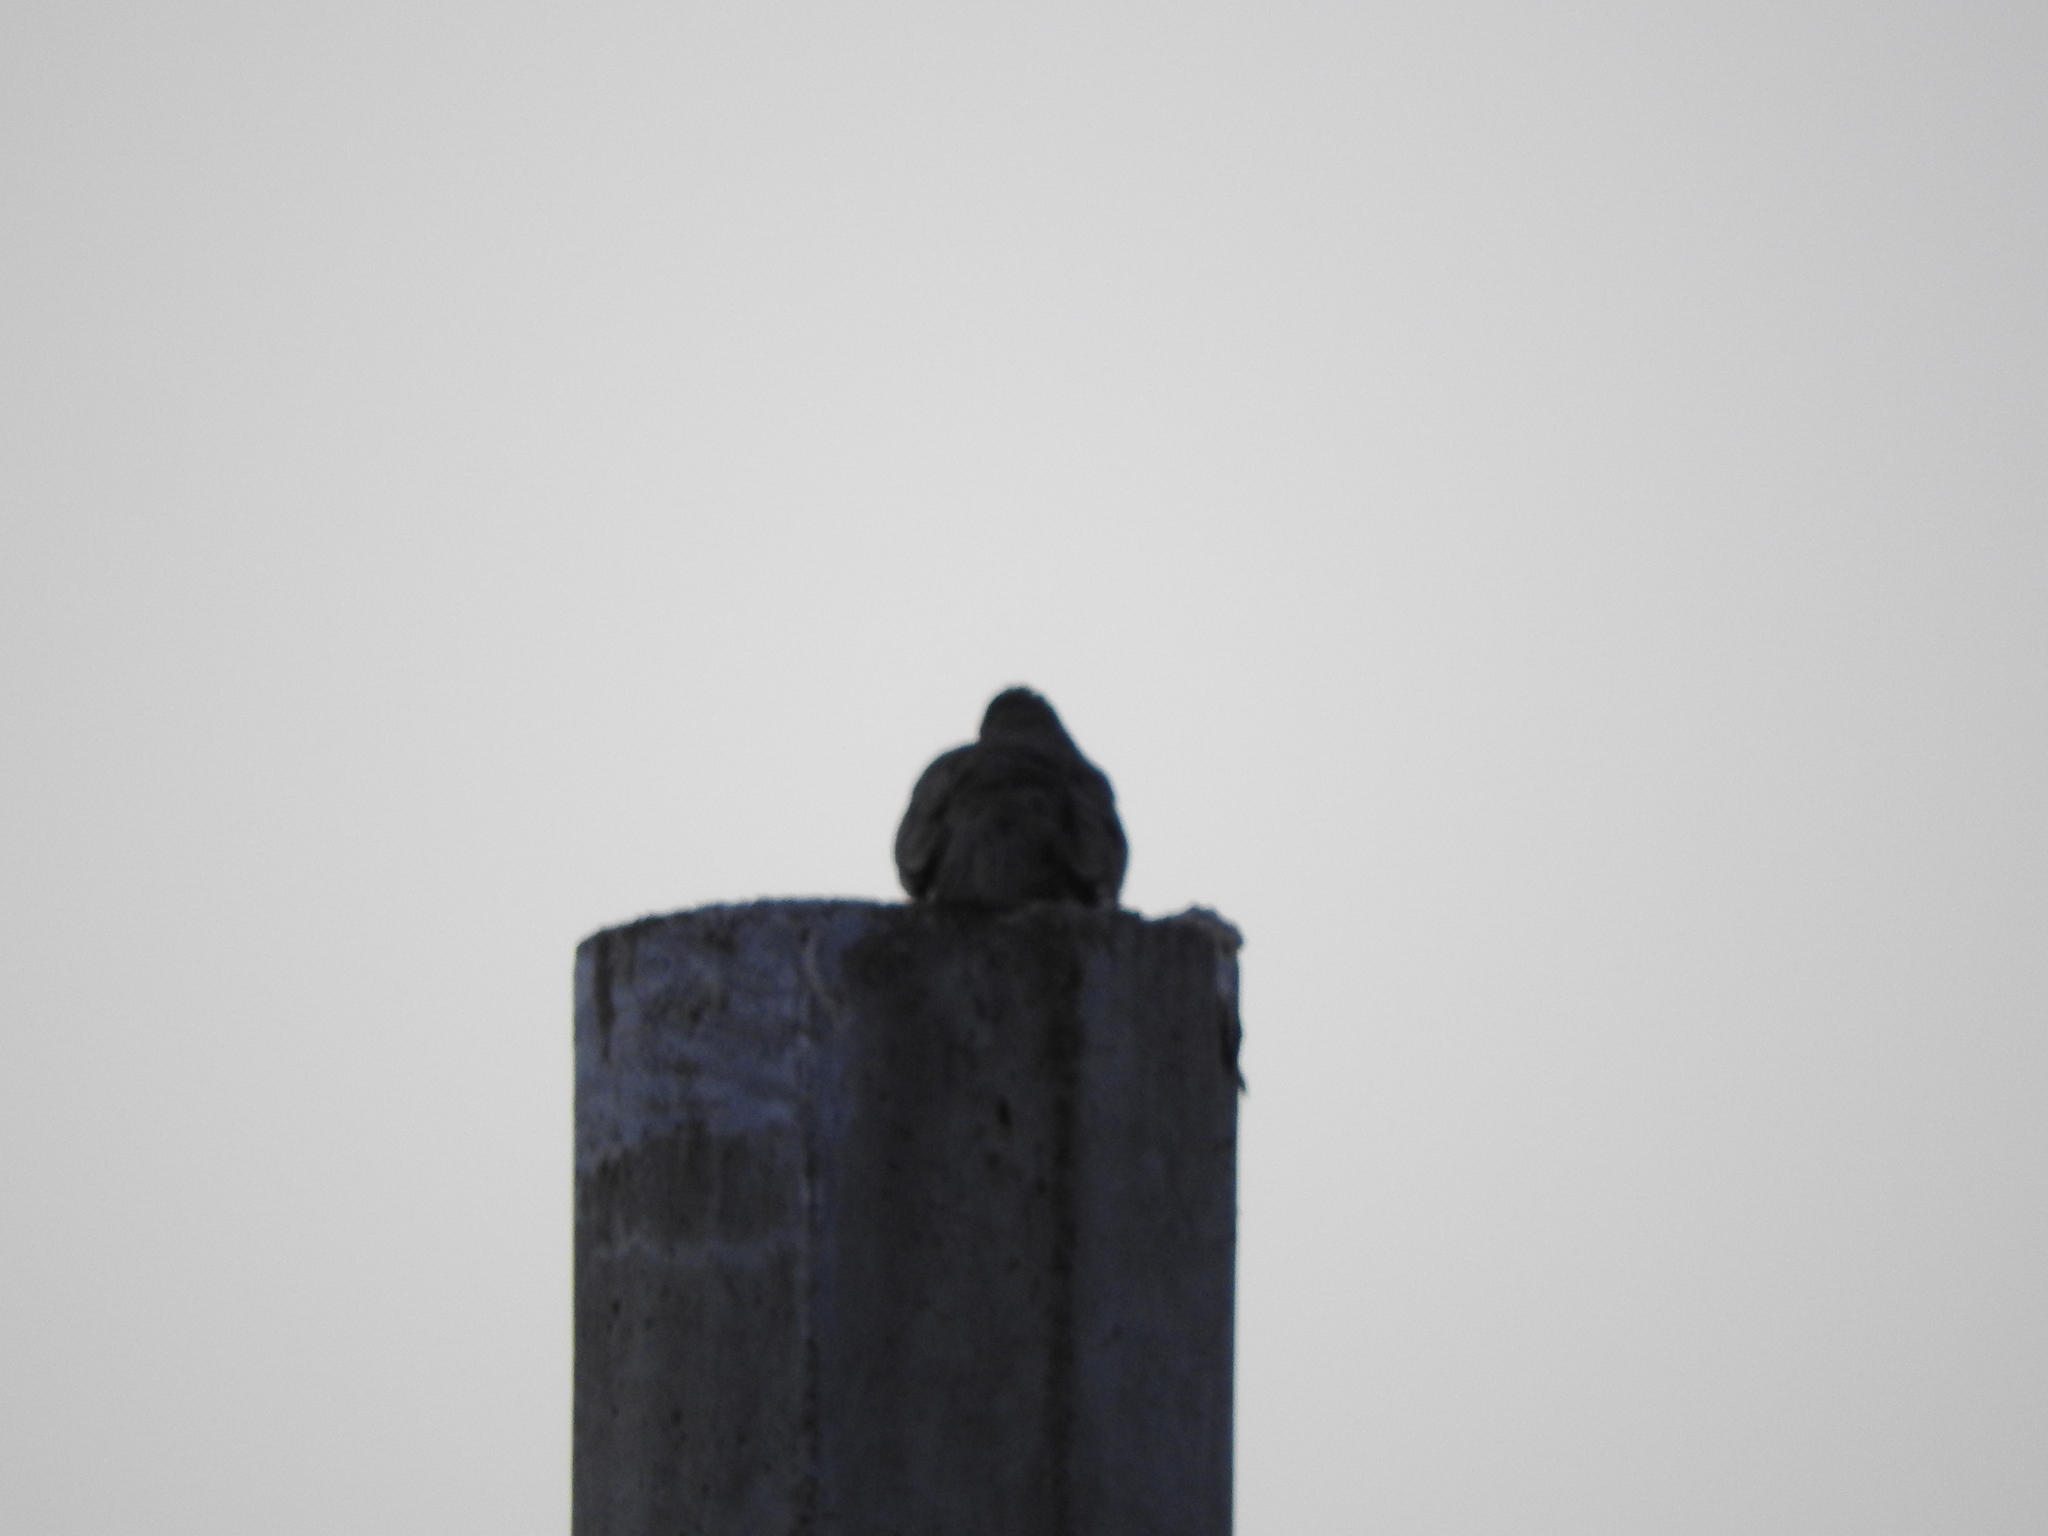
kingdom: Animalia
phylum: Chordata
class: Aves
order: Columbiformes
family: Columbidae
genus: Columbina
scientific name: Columbina inca
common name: Inca dove
